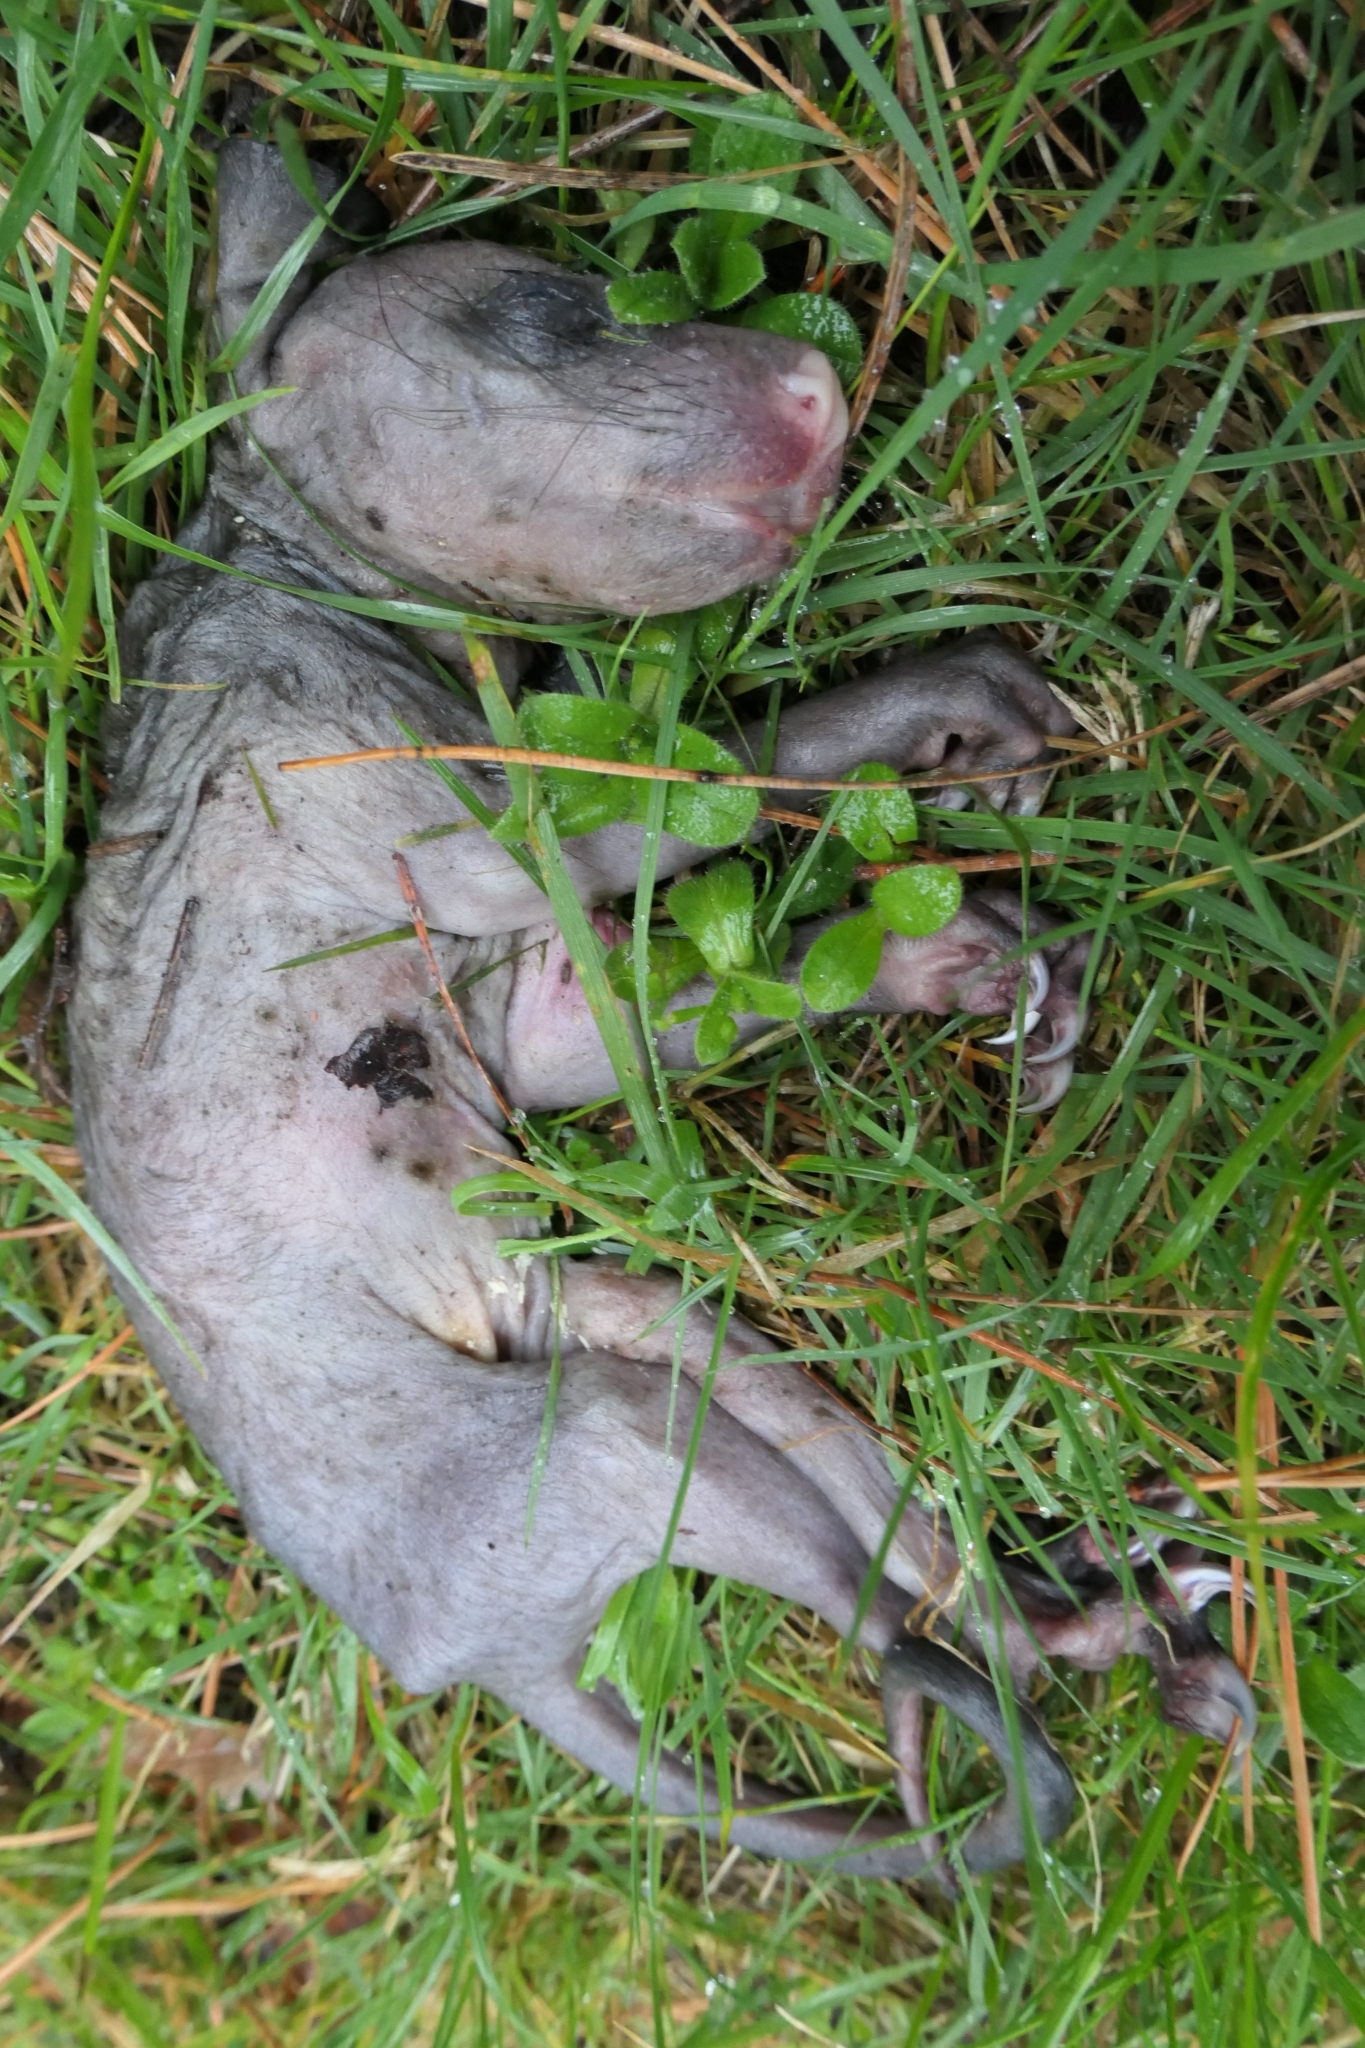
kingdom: Animalia
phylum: Chordata
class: Mammalia
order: Diprotodontia
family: Phalangeridae
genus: Trichosurus
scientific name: Trichosurus vulpecula
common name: Common brushtail
